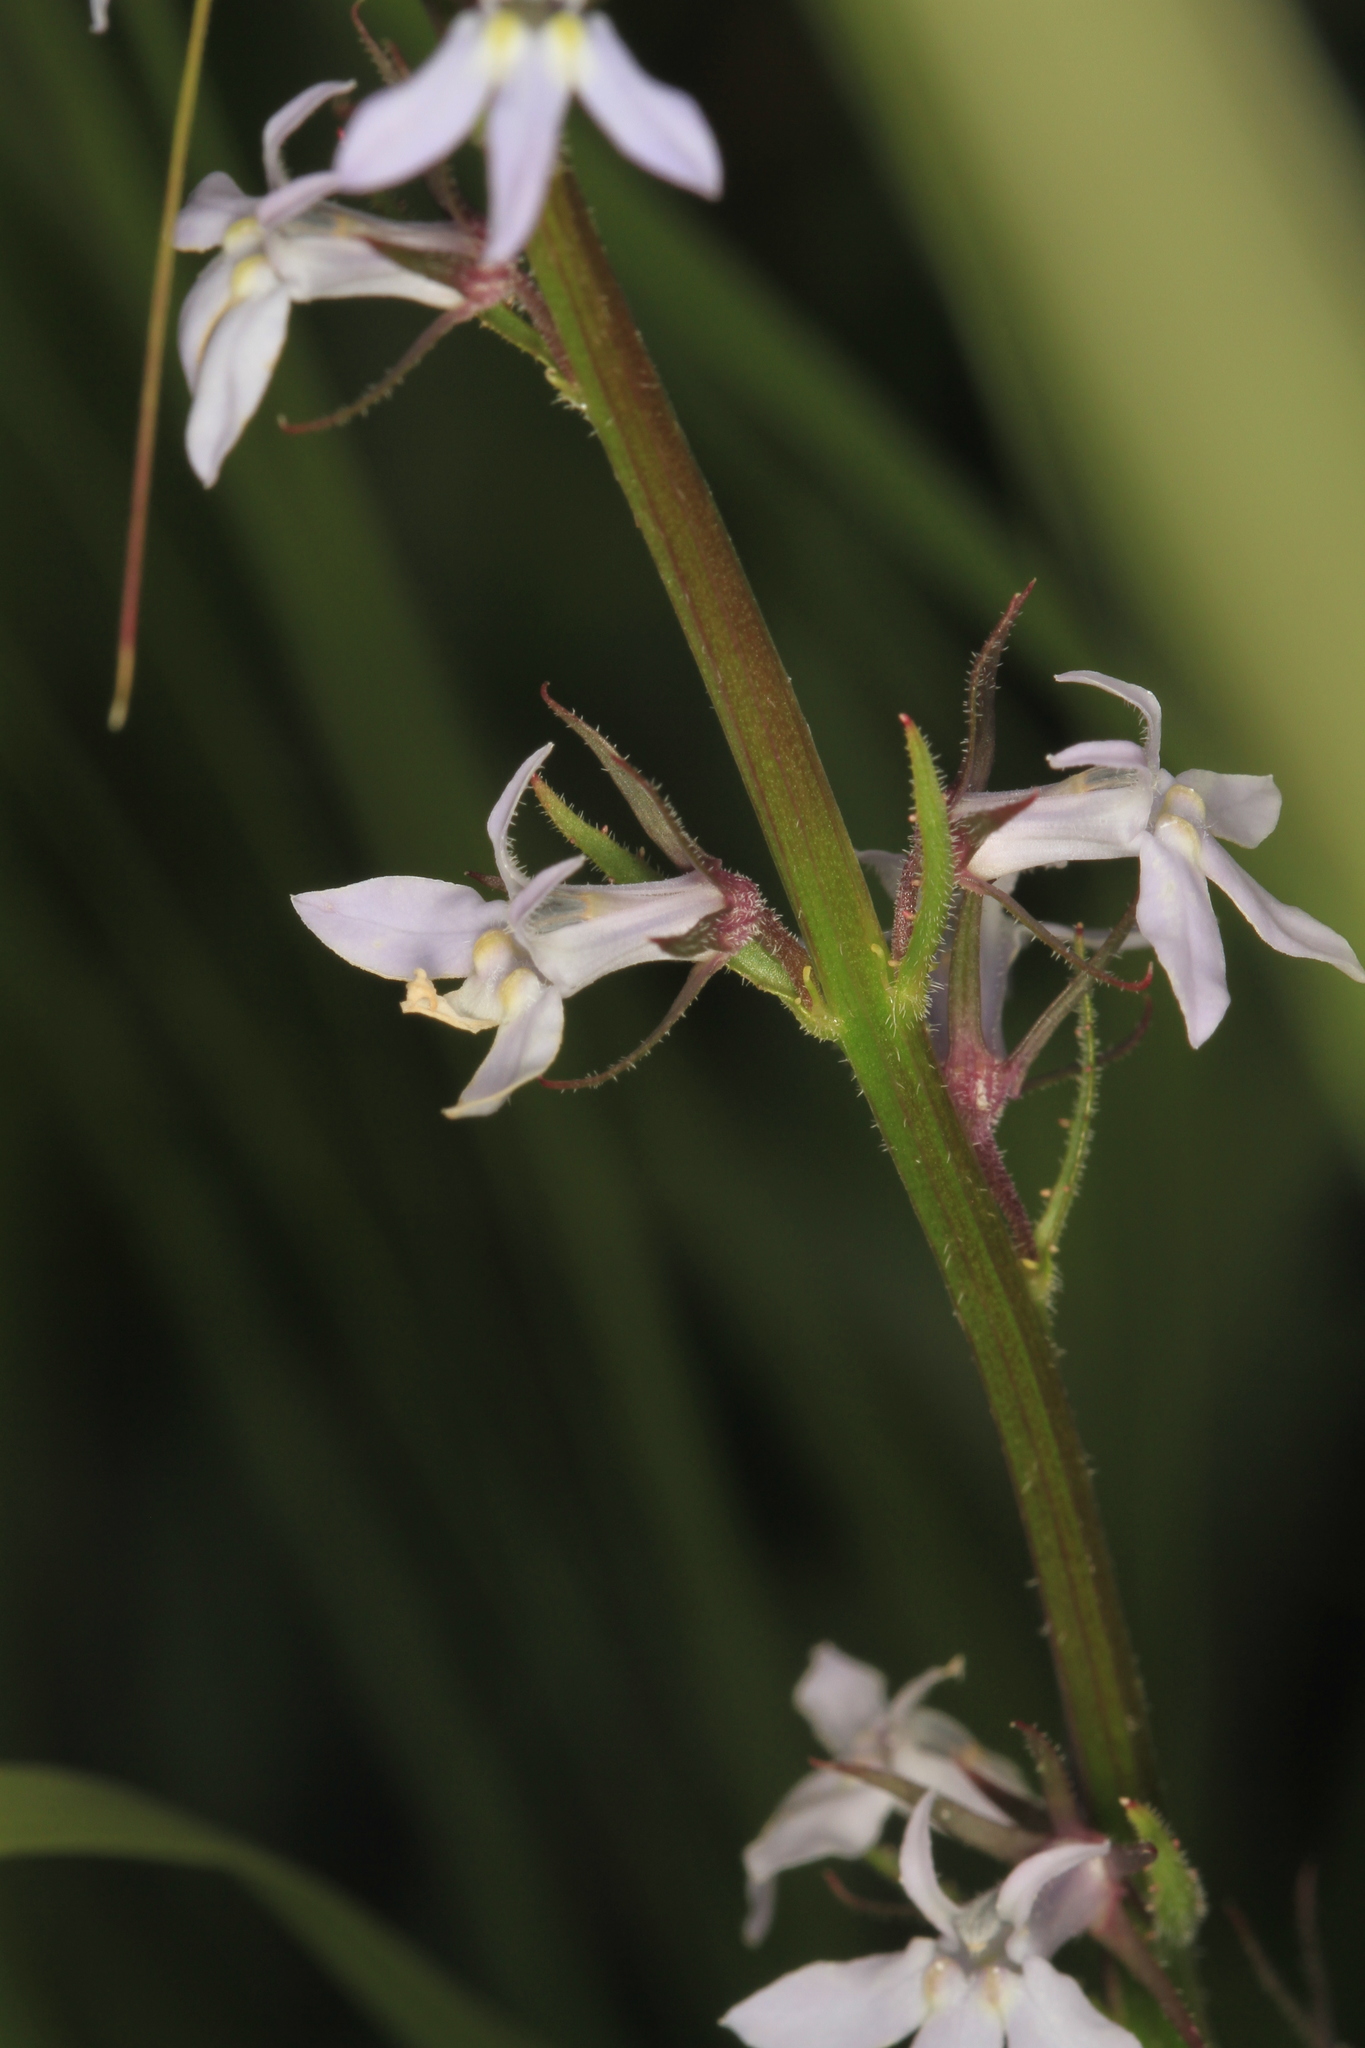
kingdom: Plantae
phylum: Tracheophyta
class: Magnoliopsida
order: Asterales
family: Campanulaceae
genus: Lobelia
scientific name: Lobelia spicata
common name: Pale-spike lobelia
